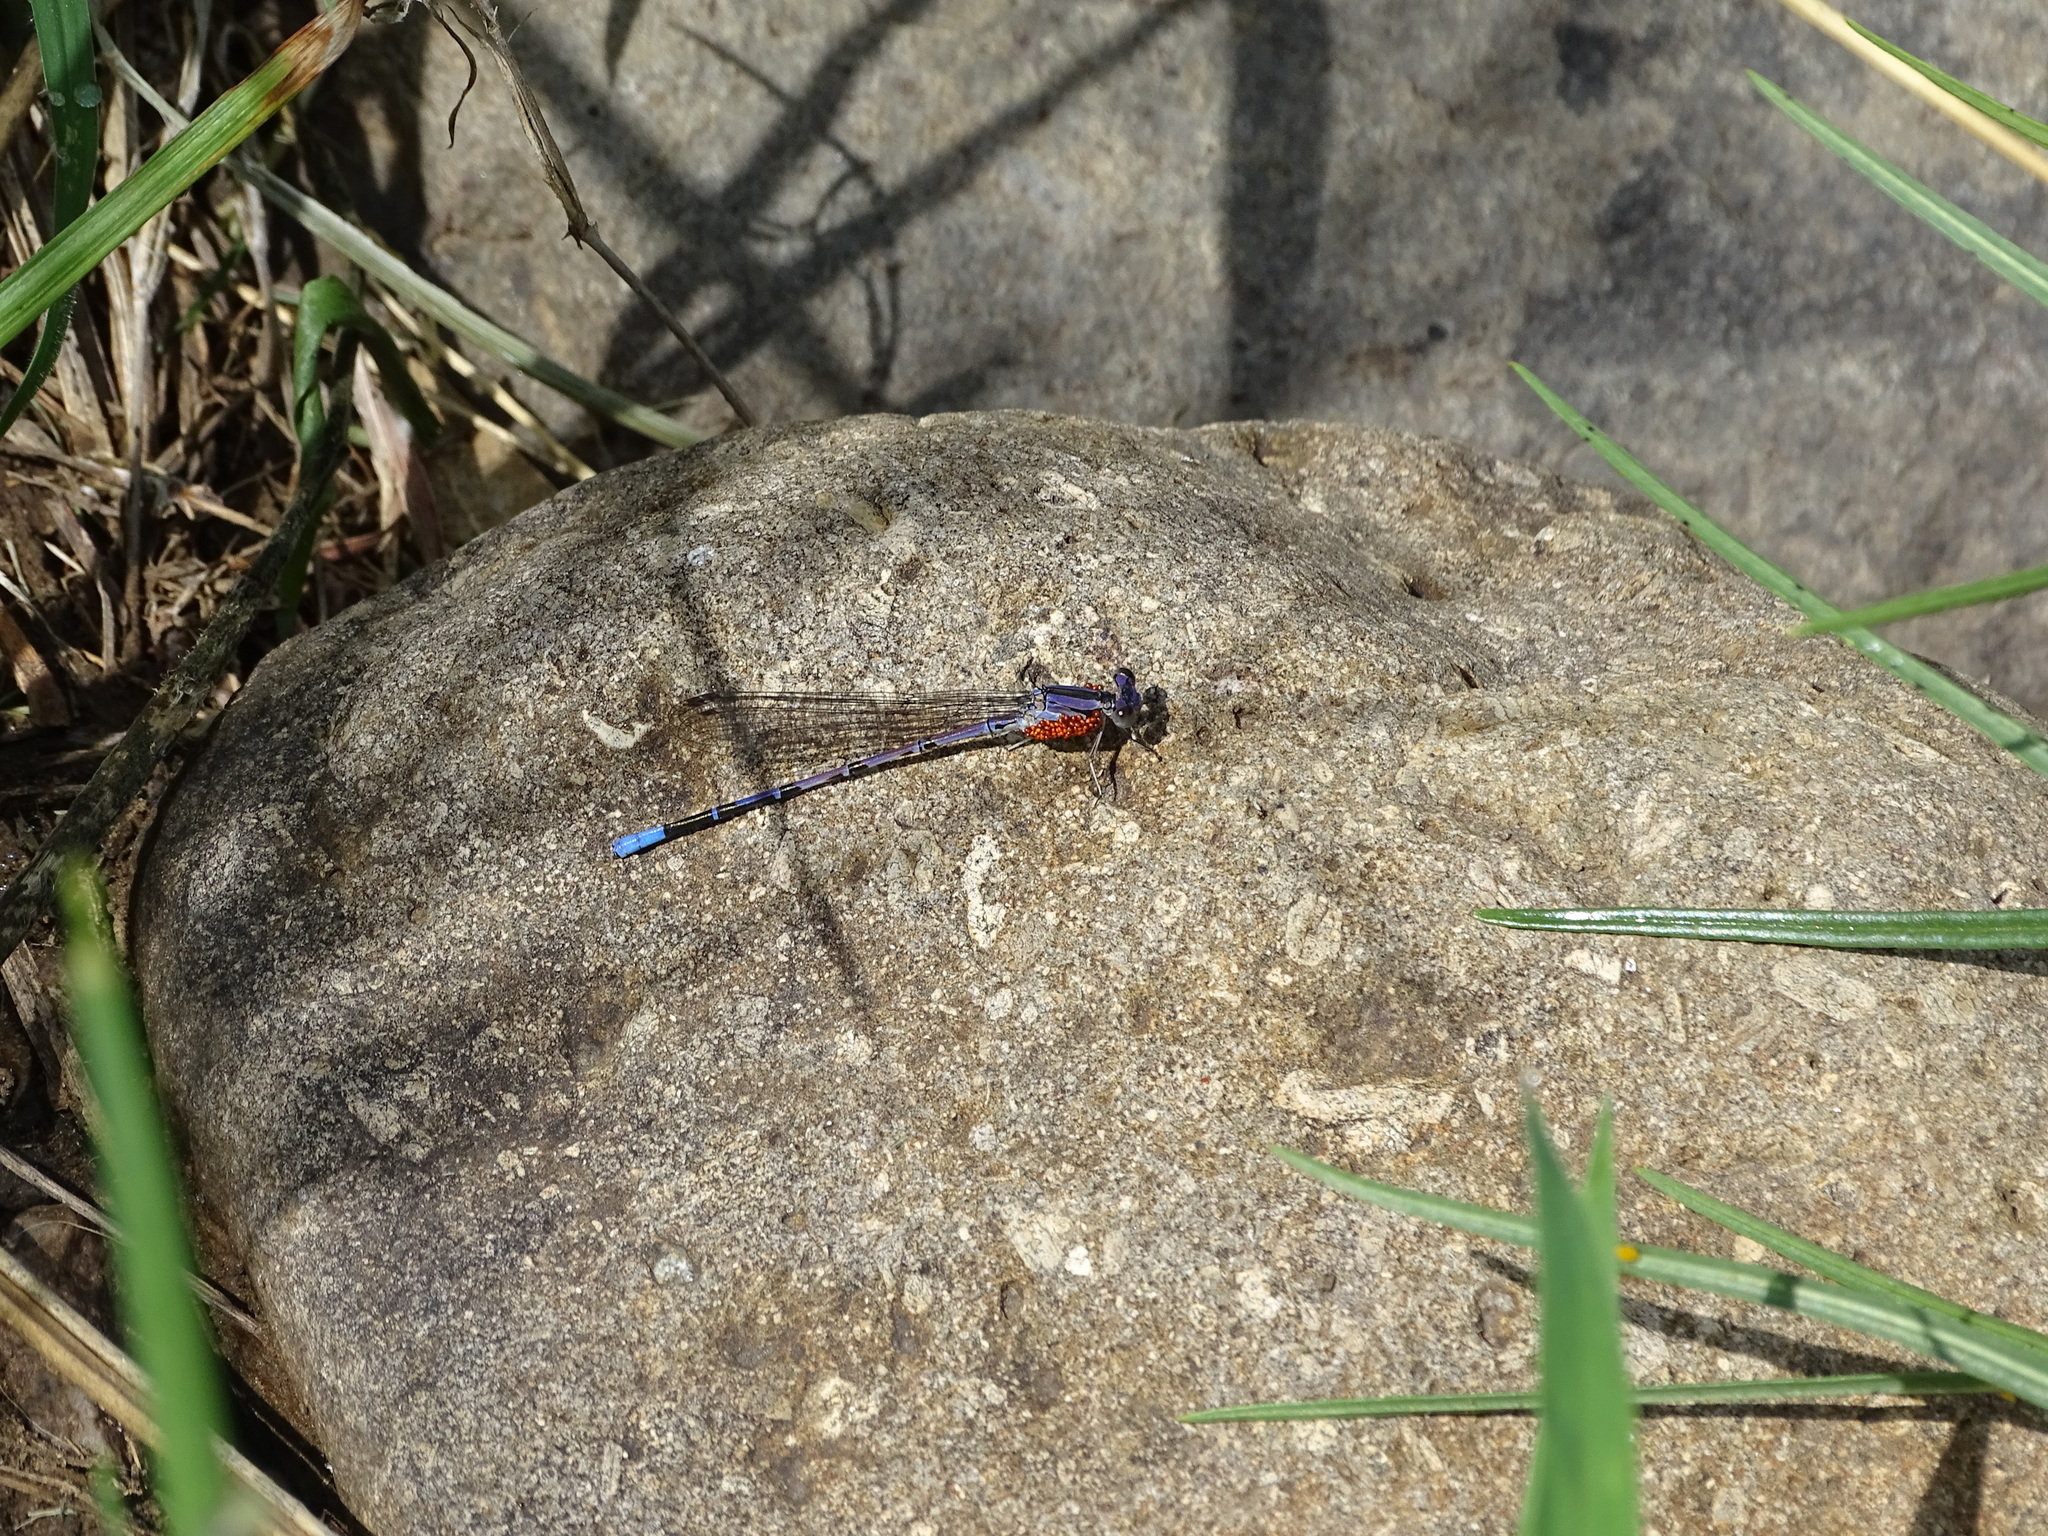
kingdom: Animalia
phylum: Arthropoda
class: Insecta
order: Odonata
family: Coenagrionidae
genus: Argia
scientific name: Argia funebris
